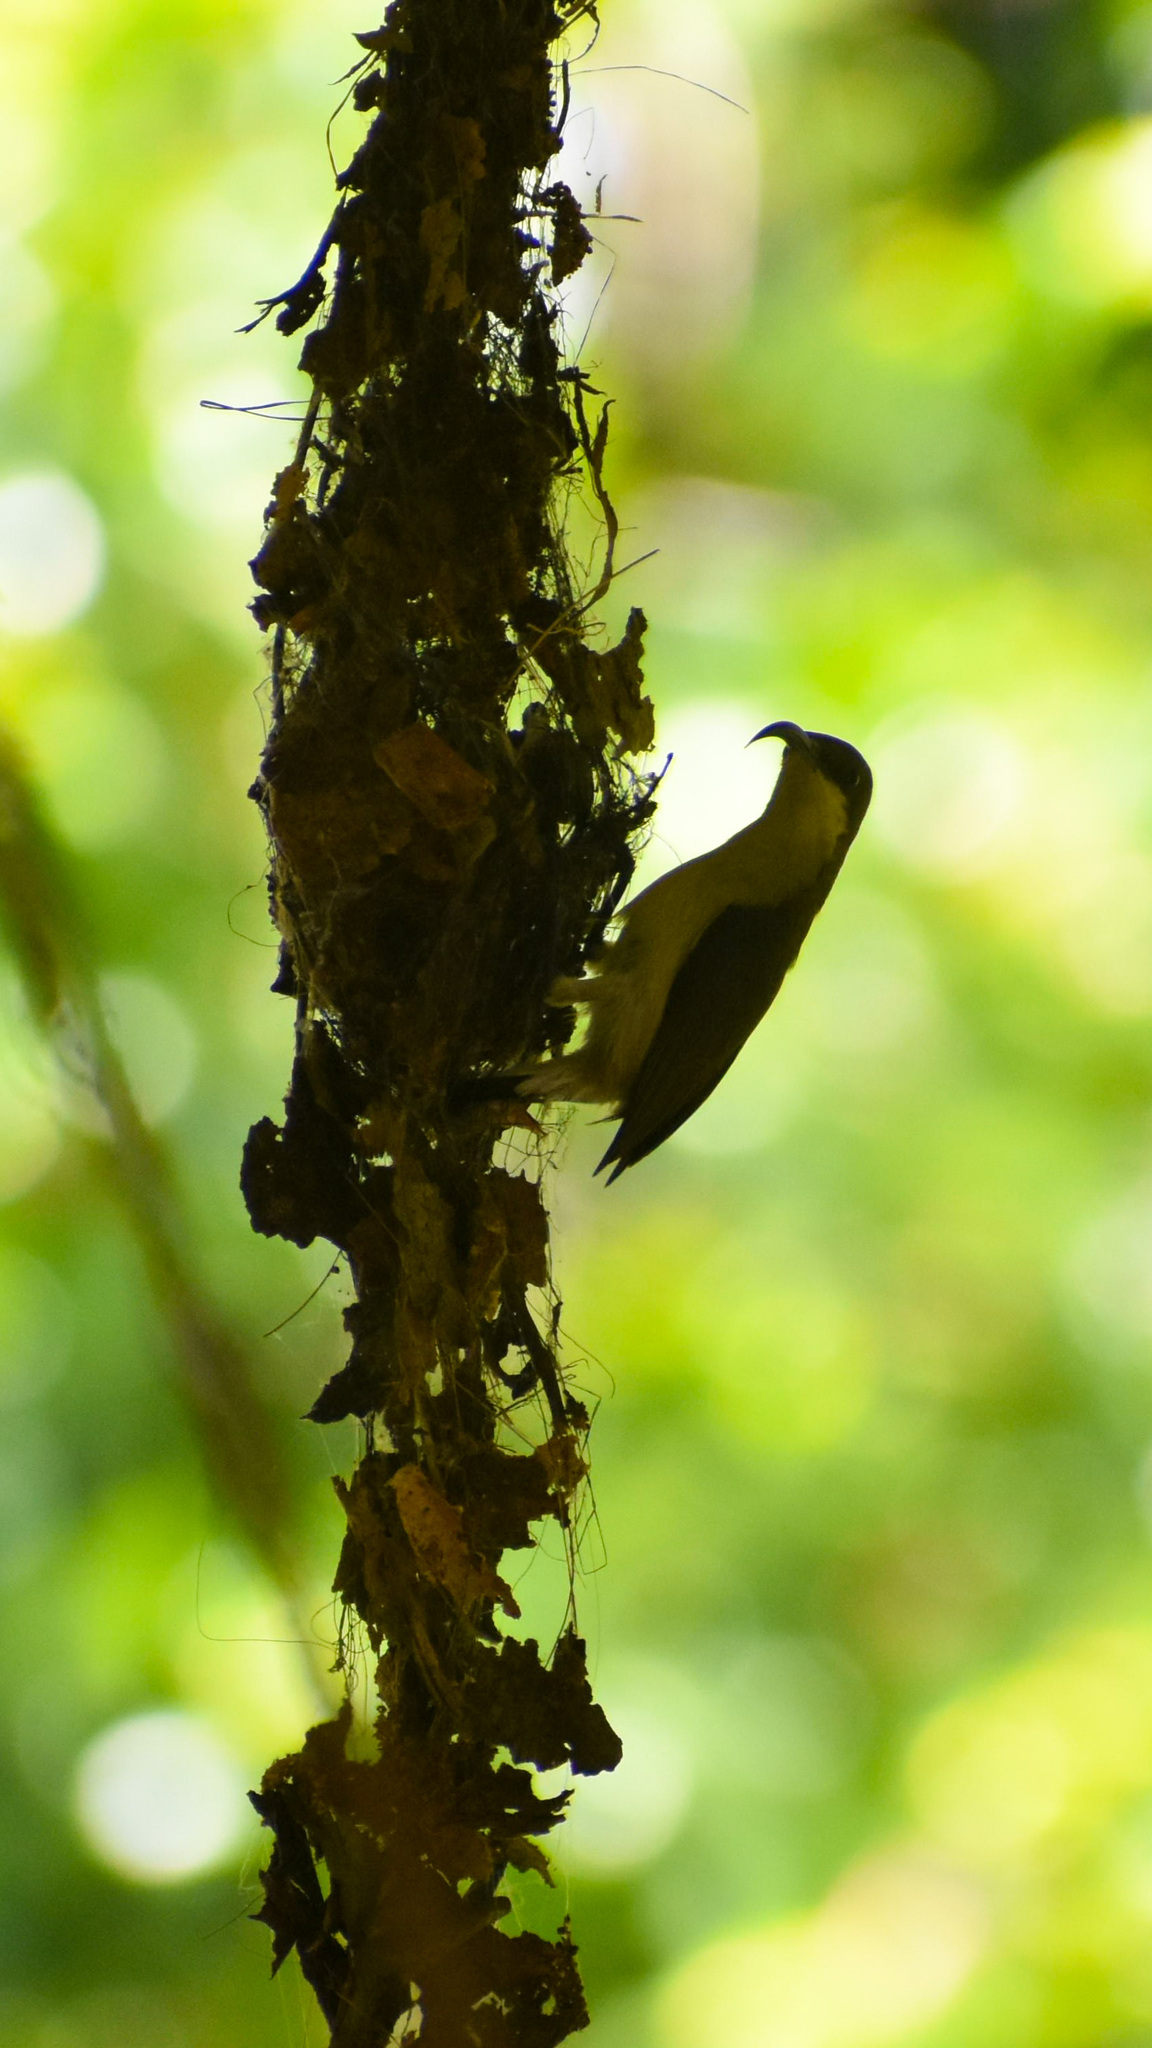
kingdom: Animalia
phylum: Chordata
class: Aves
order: Passeriformes
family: Nectariniidae
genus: Cinnyris
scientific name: Cinnyris lotenius
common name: Loten's sunbird
